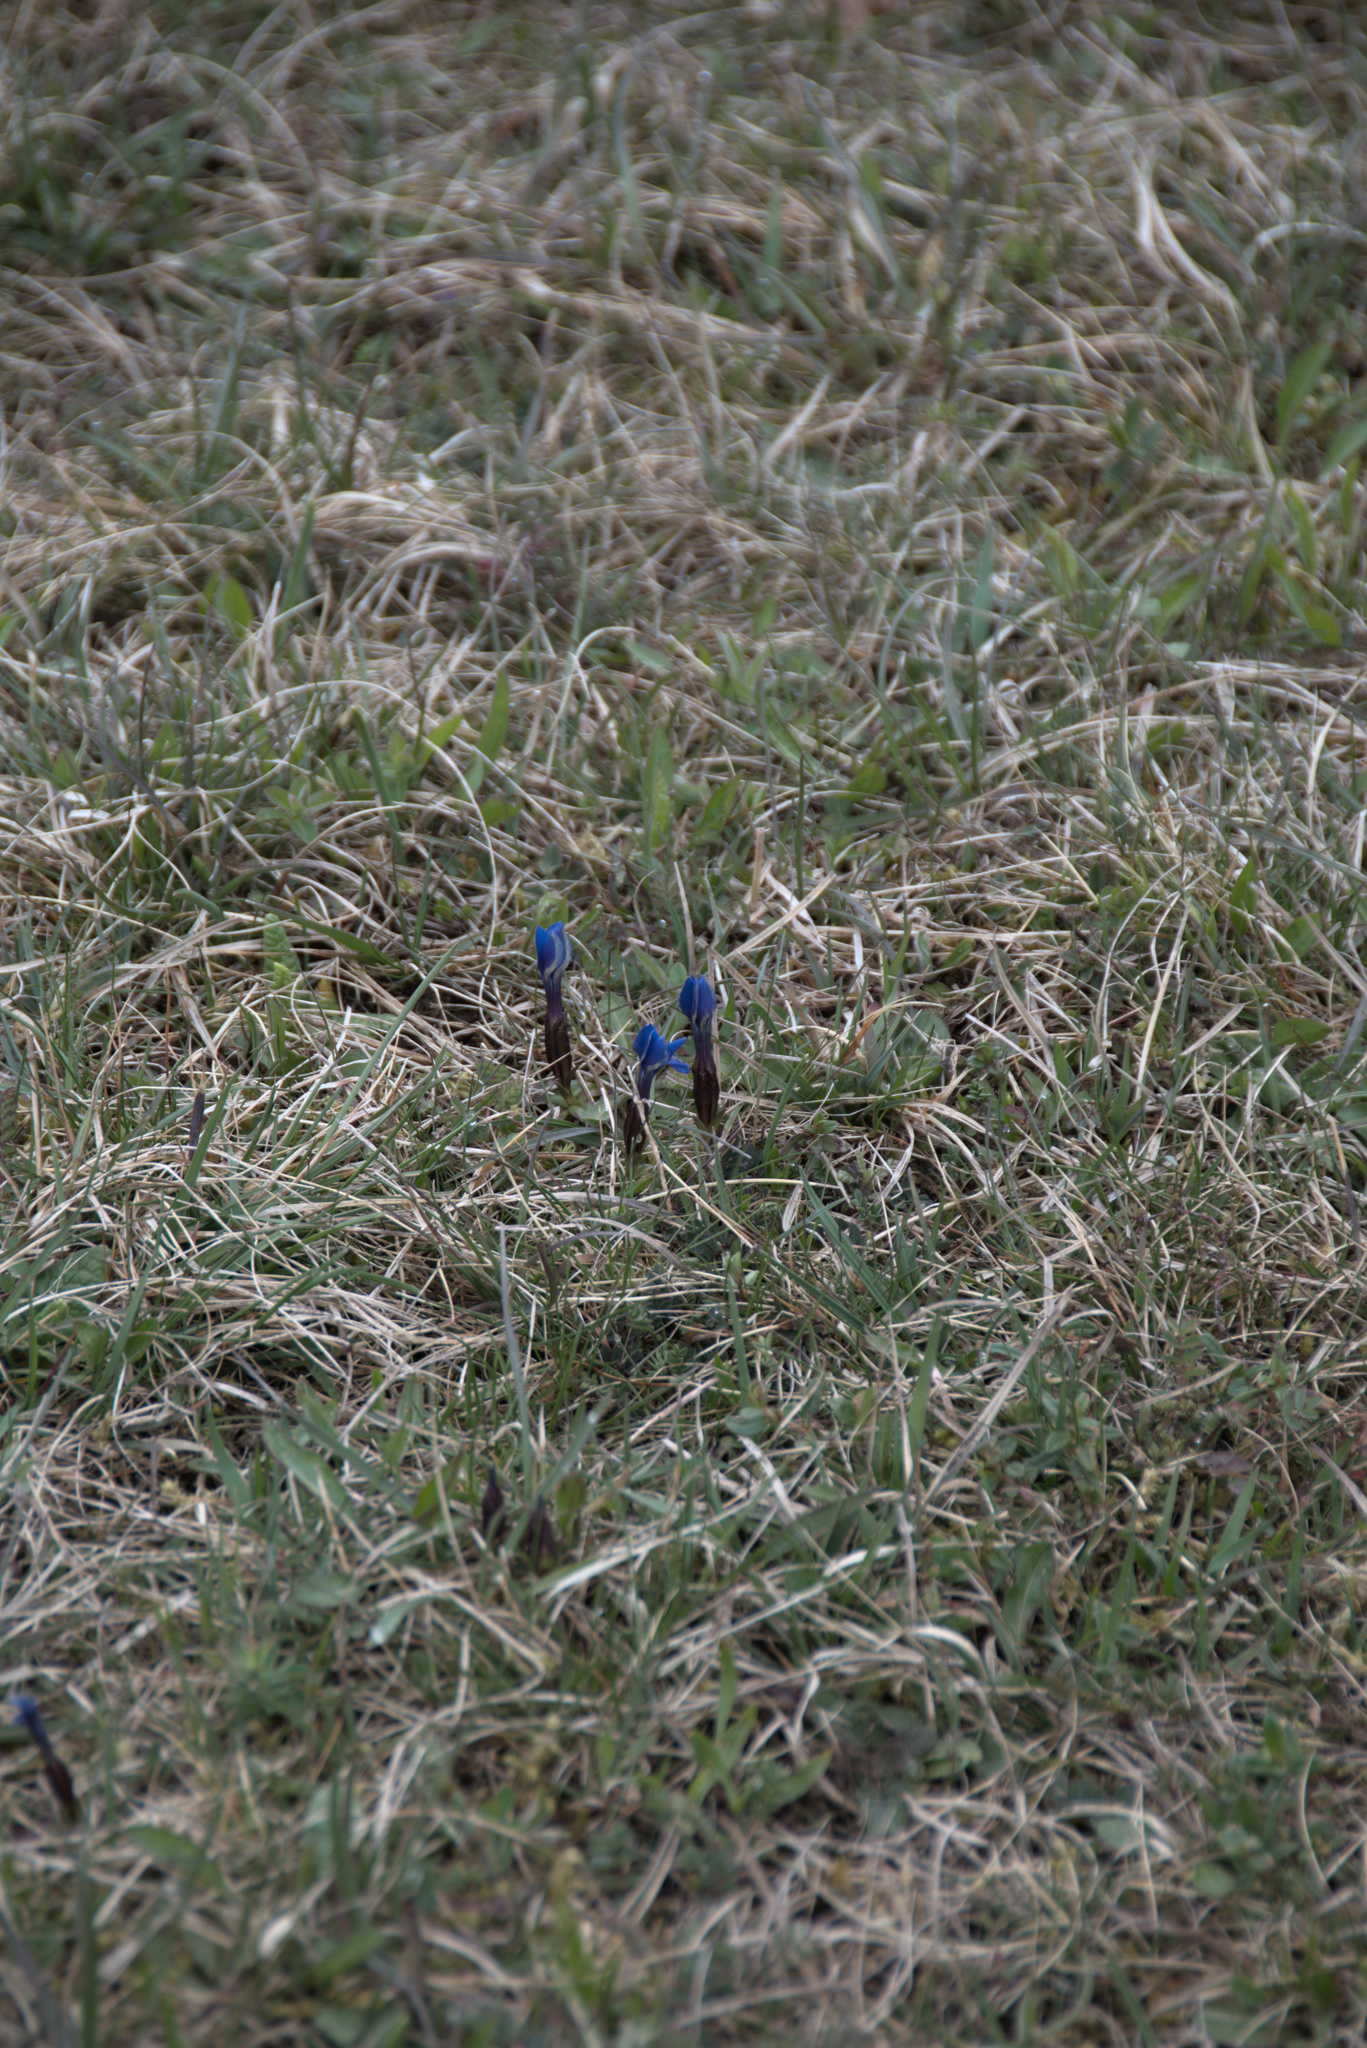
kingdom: Plantae
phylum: Tracheophyta
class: Magnoliopsida
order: Gentianales
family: Gentianaceae
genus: Gentiana
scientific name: Gentiana verna
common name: Spring gentian
